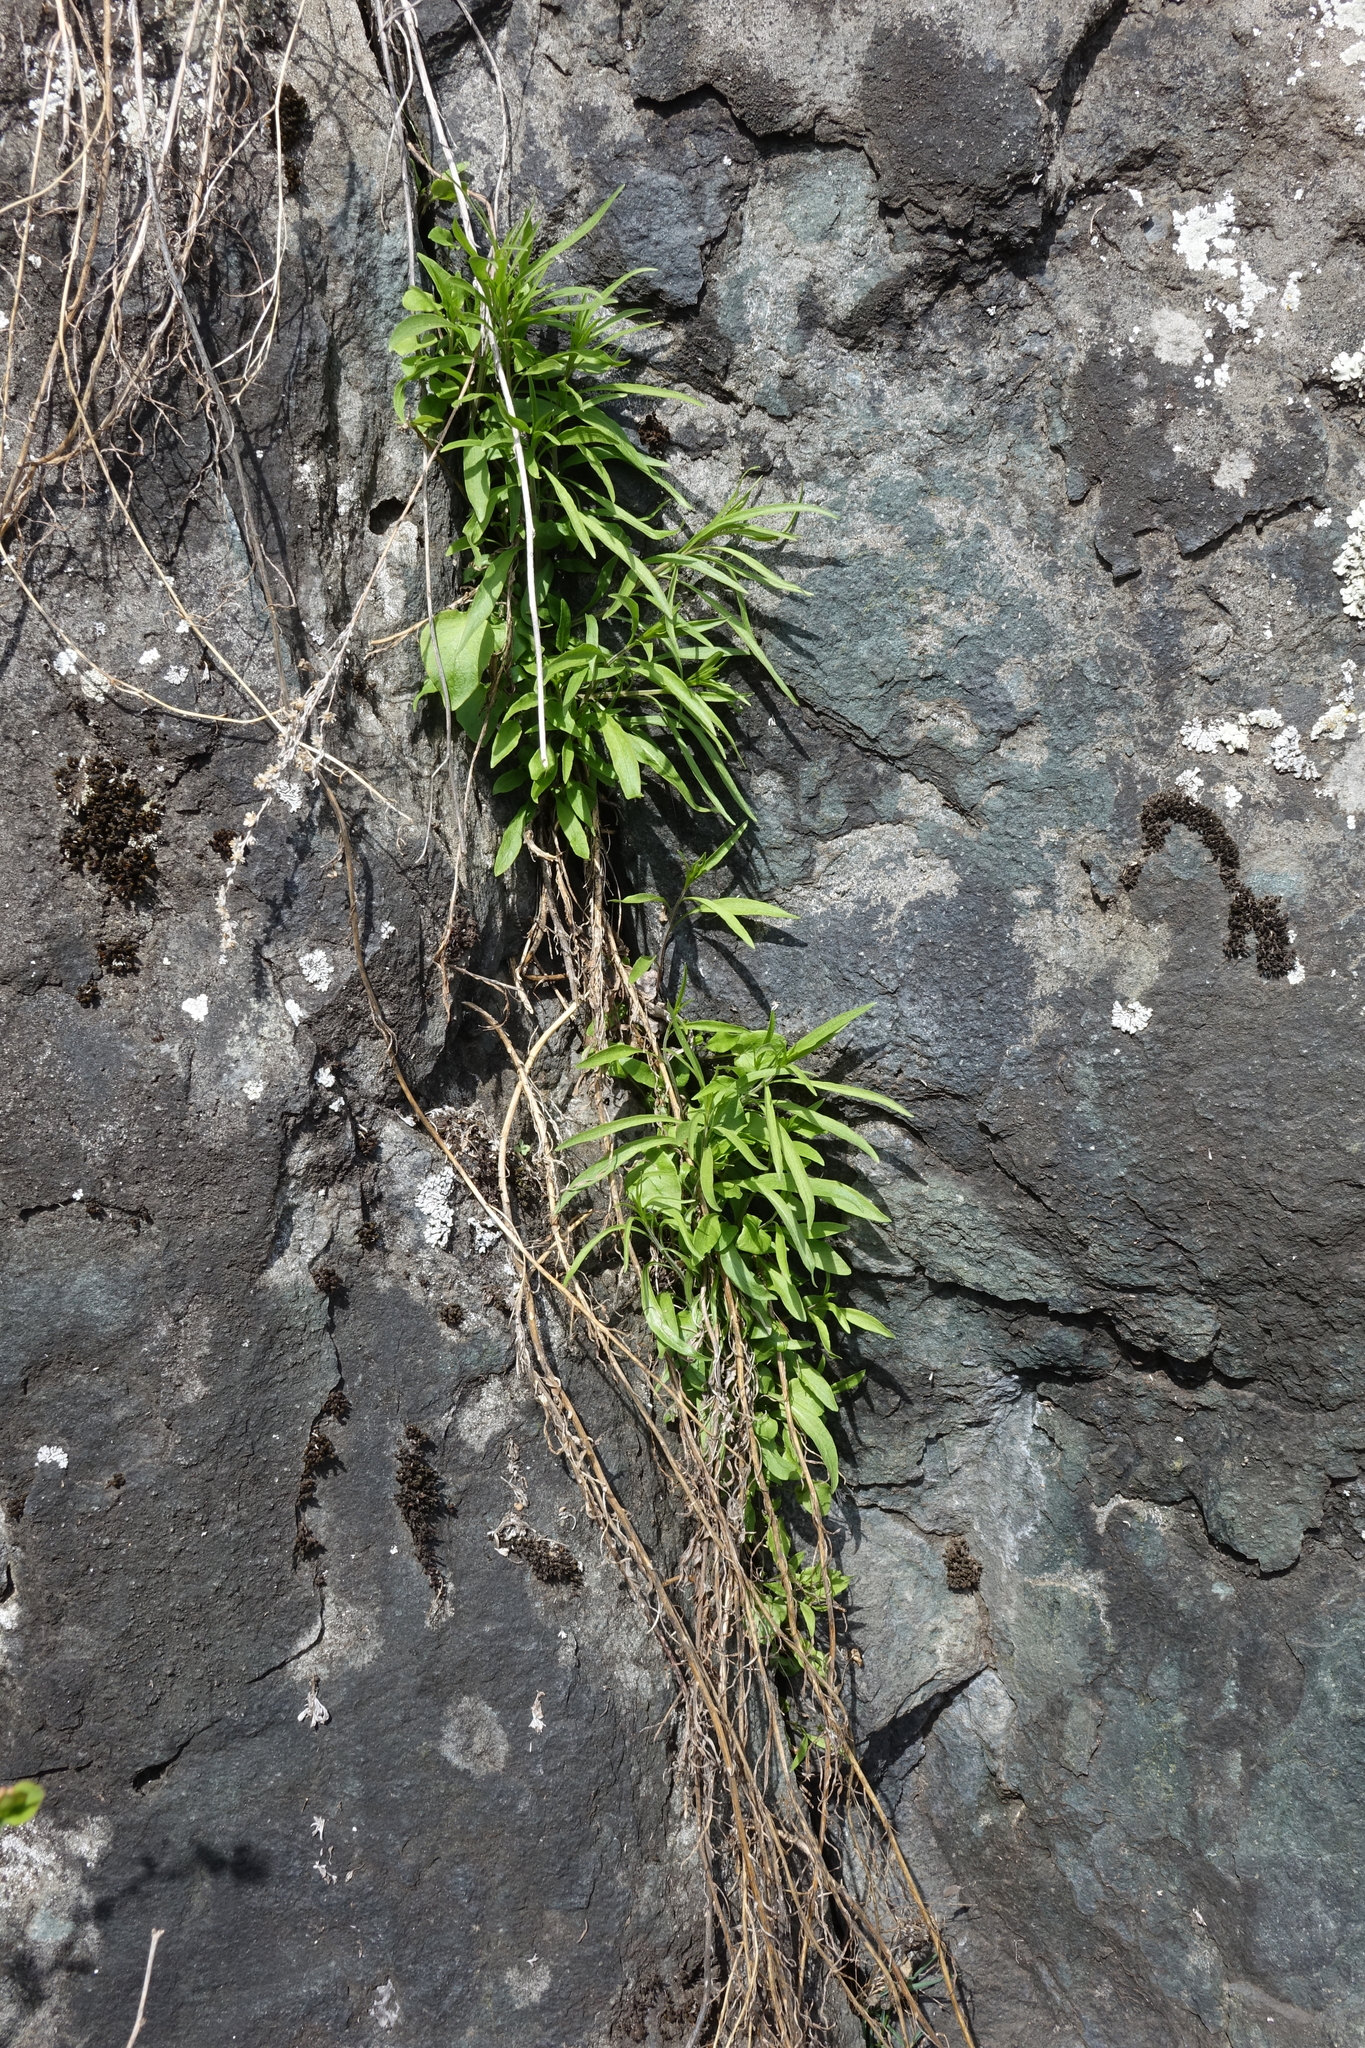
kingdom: Plantae
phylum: Tracheophyta
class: Magnoliopsida
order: Asterales
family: Campanulaceae
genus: Campanula
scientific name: Campanula rotundifolia
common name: Harebell
